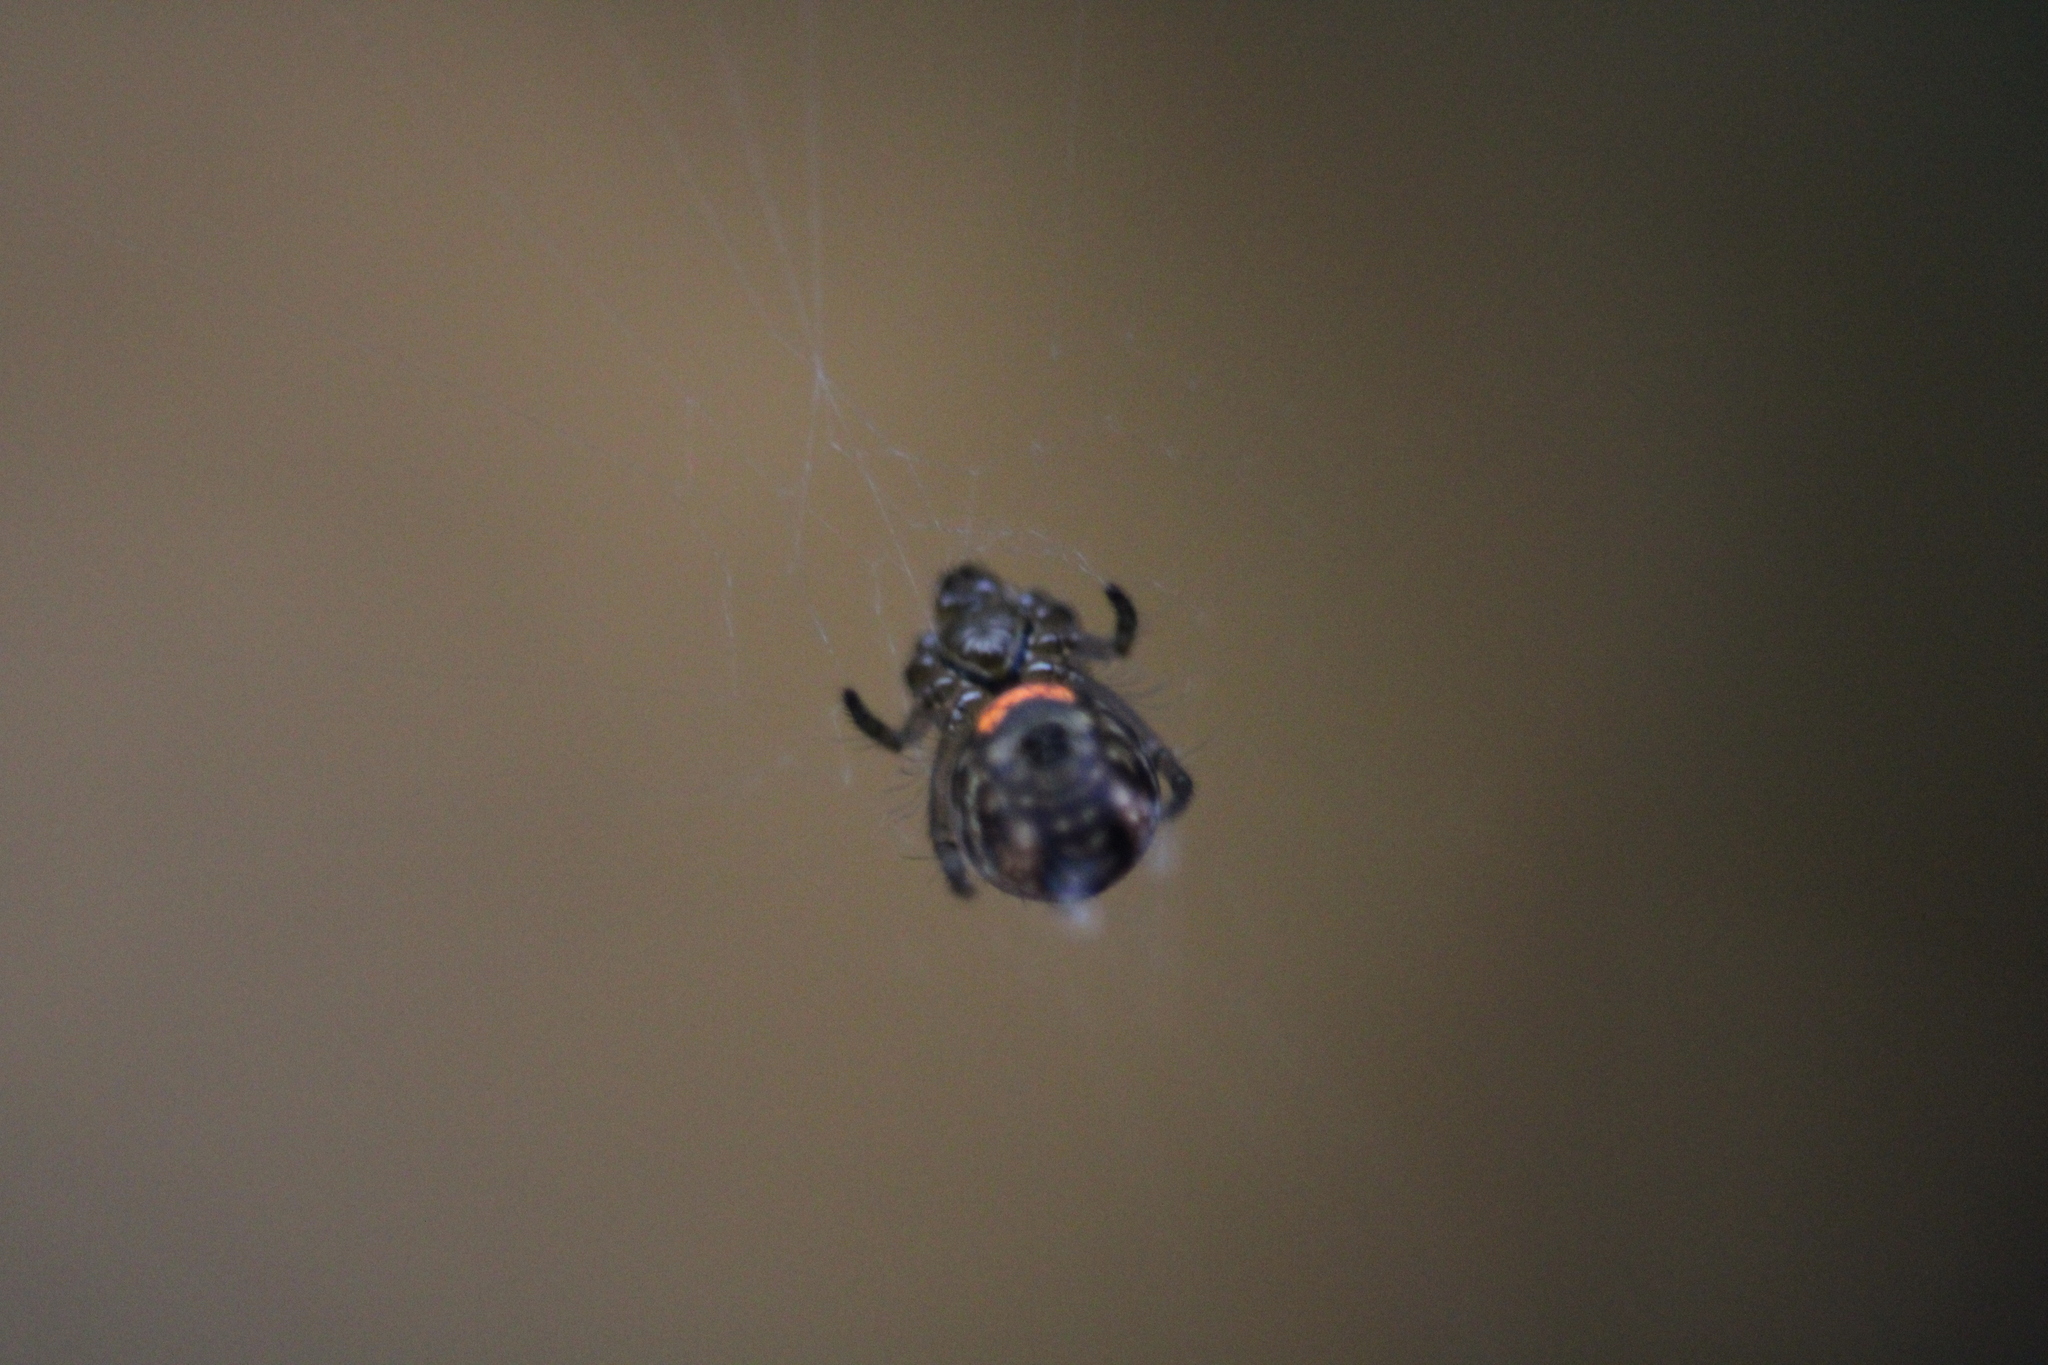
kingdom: Animalia
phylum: Arthropoda
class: Arachnida
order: Araneae
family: Tetragnathidae
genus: Leucauge
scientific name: Leucauge venusta
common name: Longjawed orb weavers
